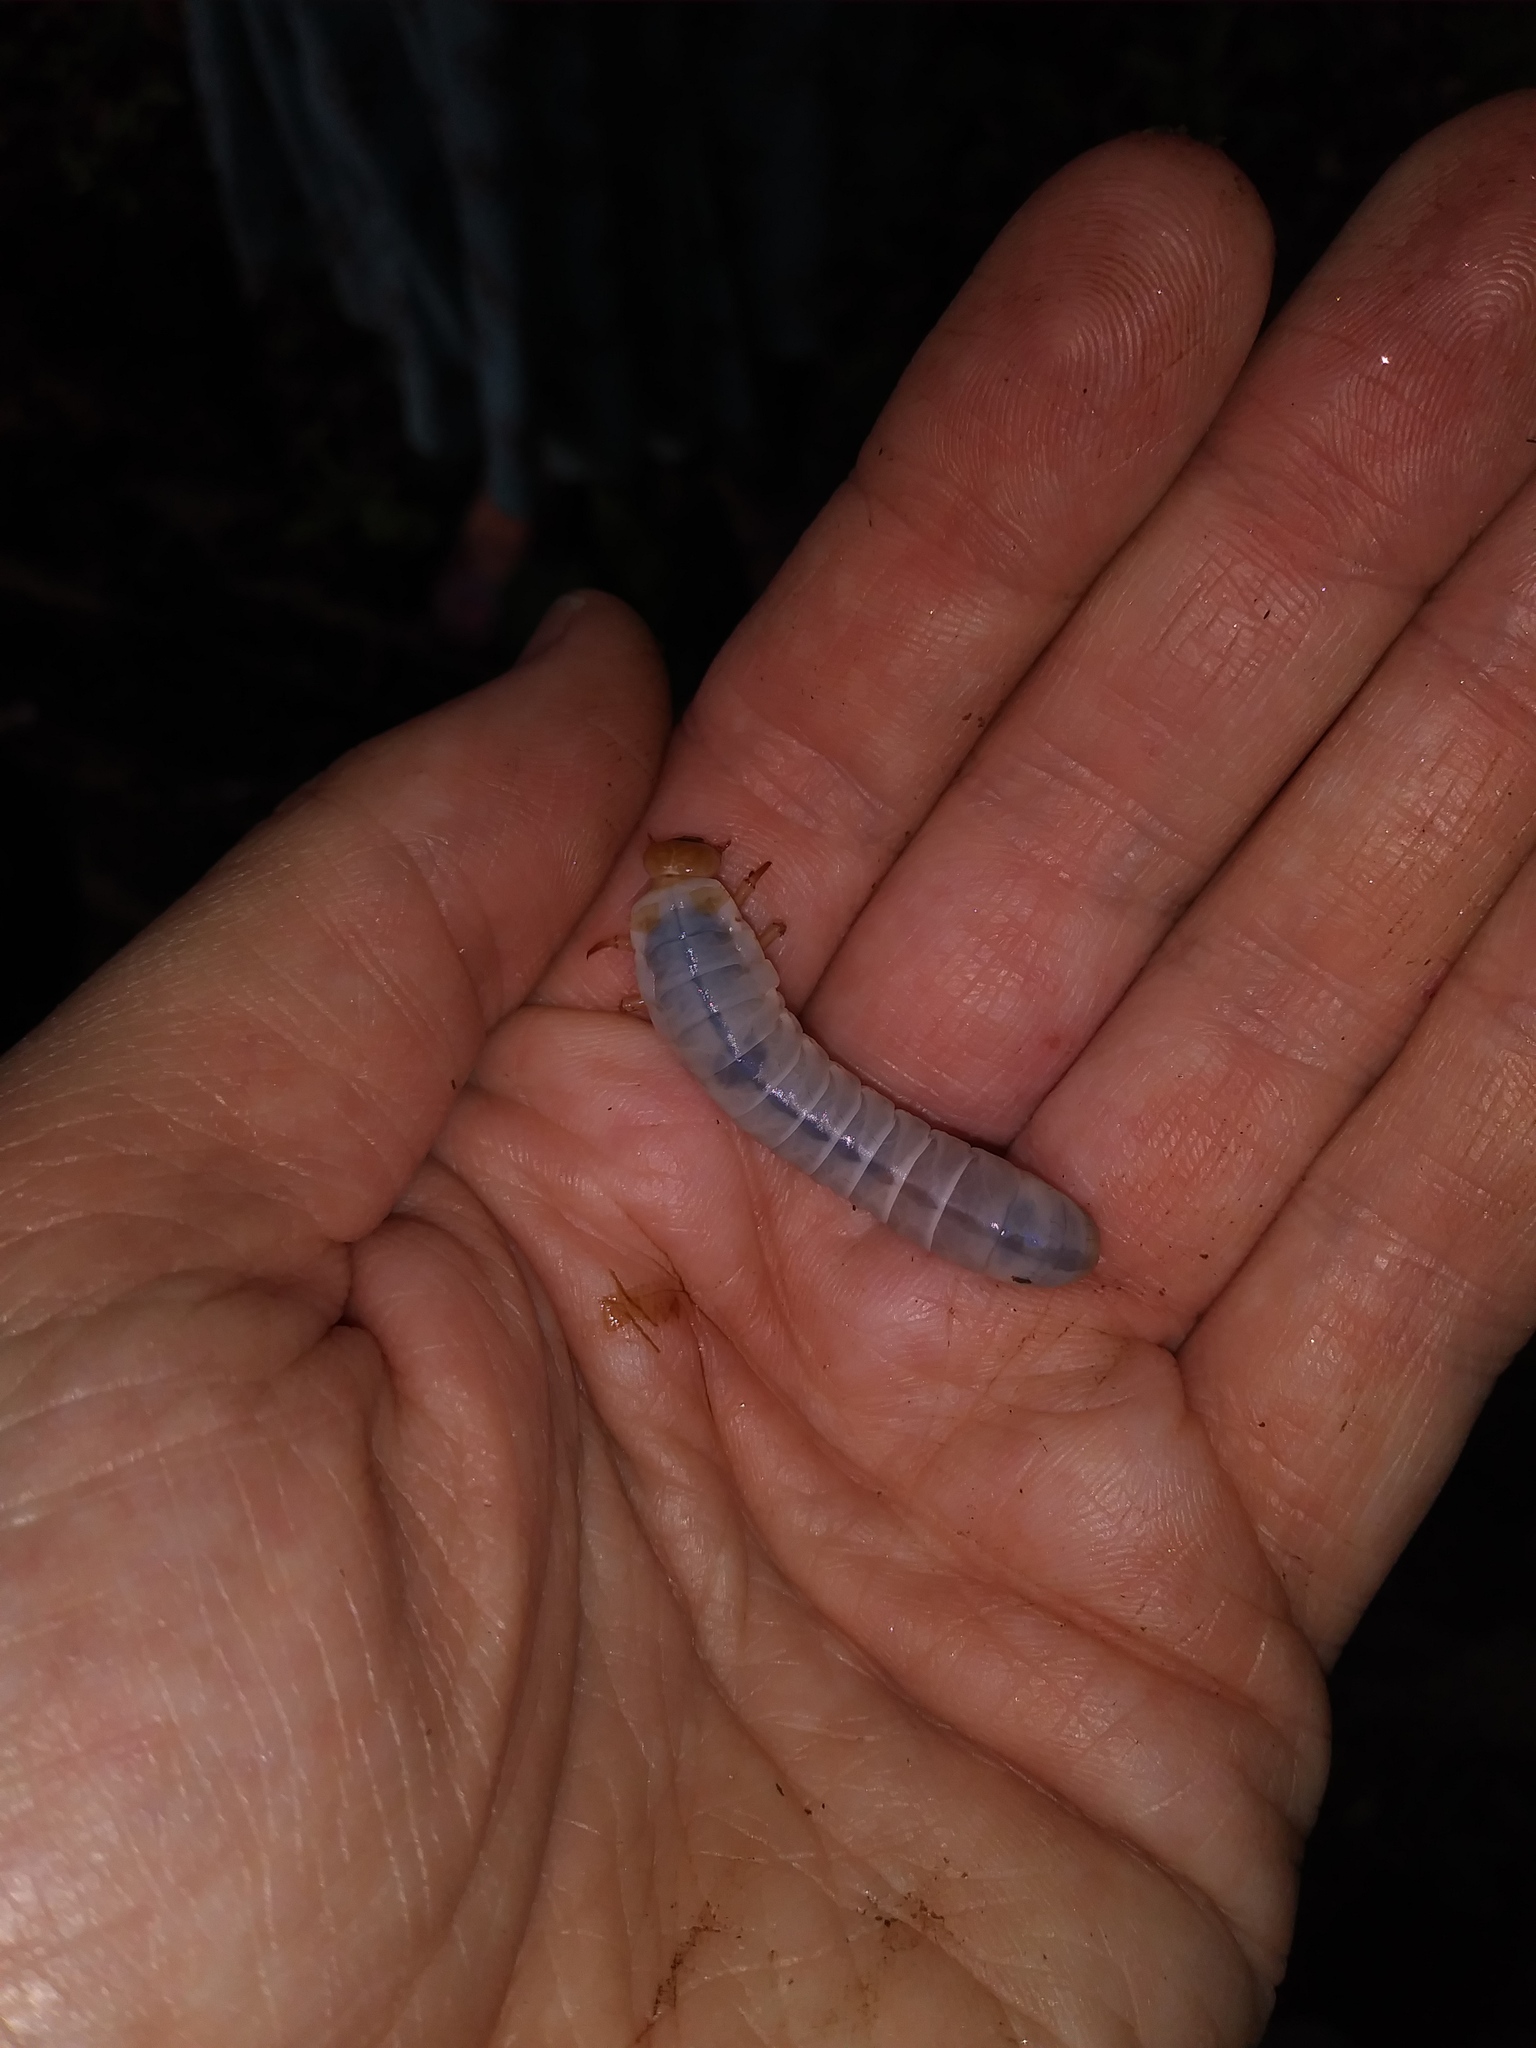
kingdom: Animalia
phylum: Arthropoda
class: Insecta
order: Coleoptera
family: Passalidae
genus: Odontotaenius
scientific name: Odontotaenius disjunctus
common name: Patent leather beetle
